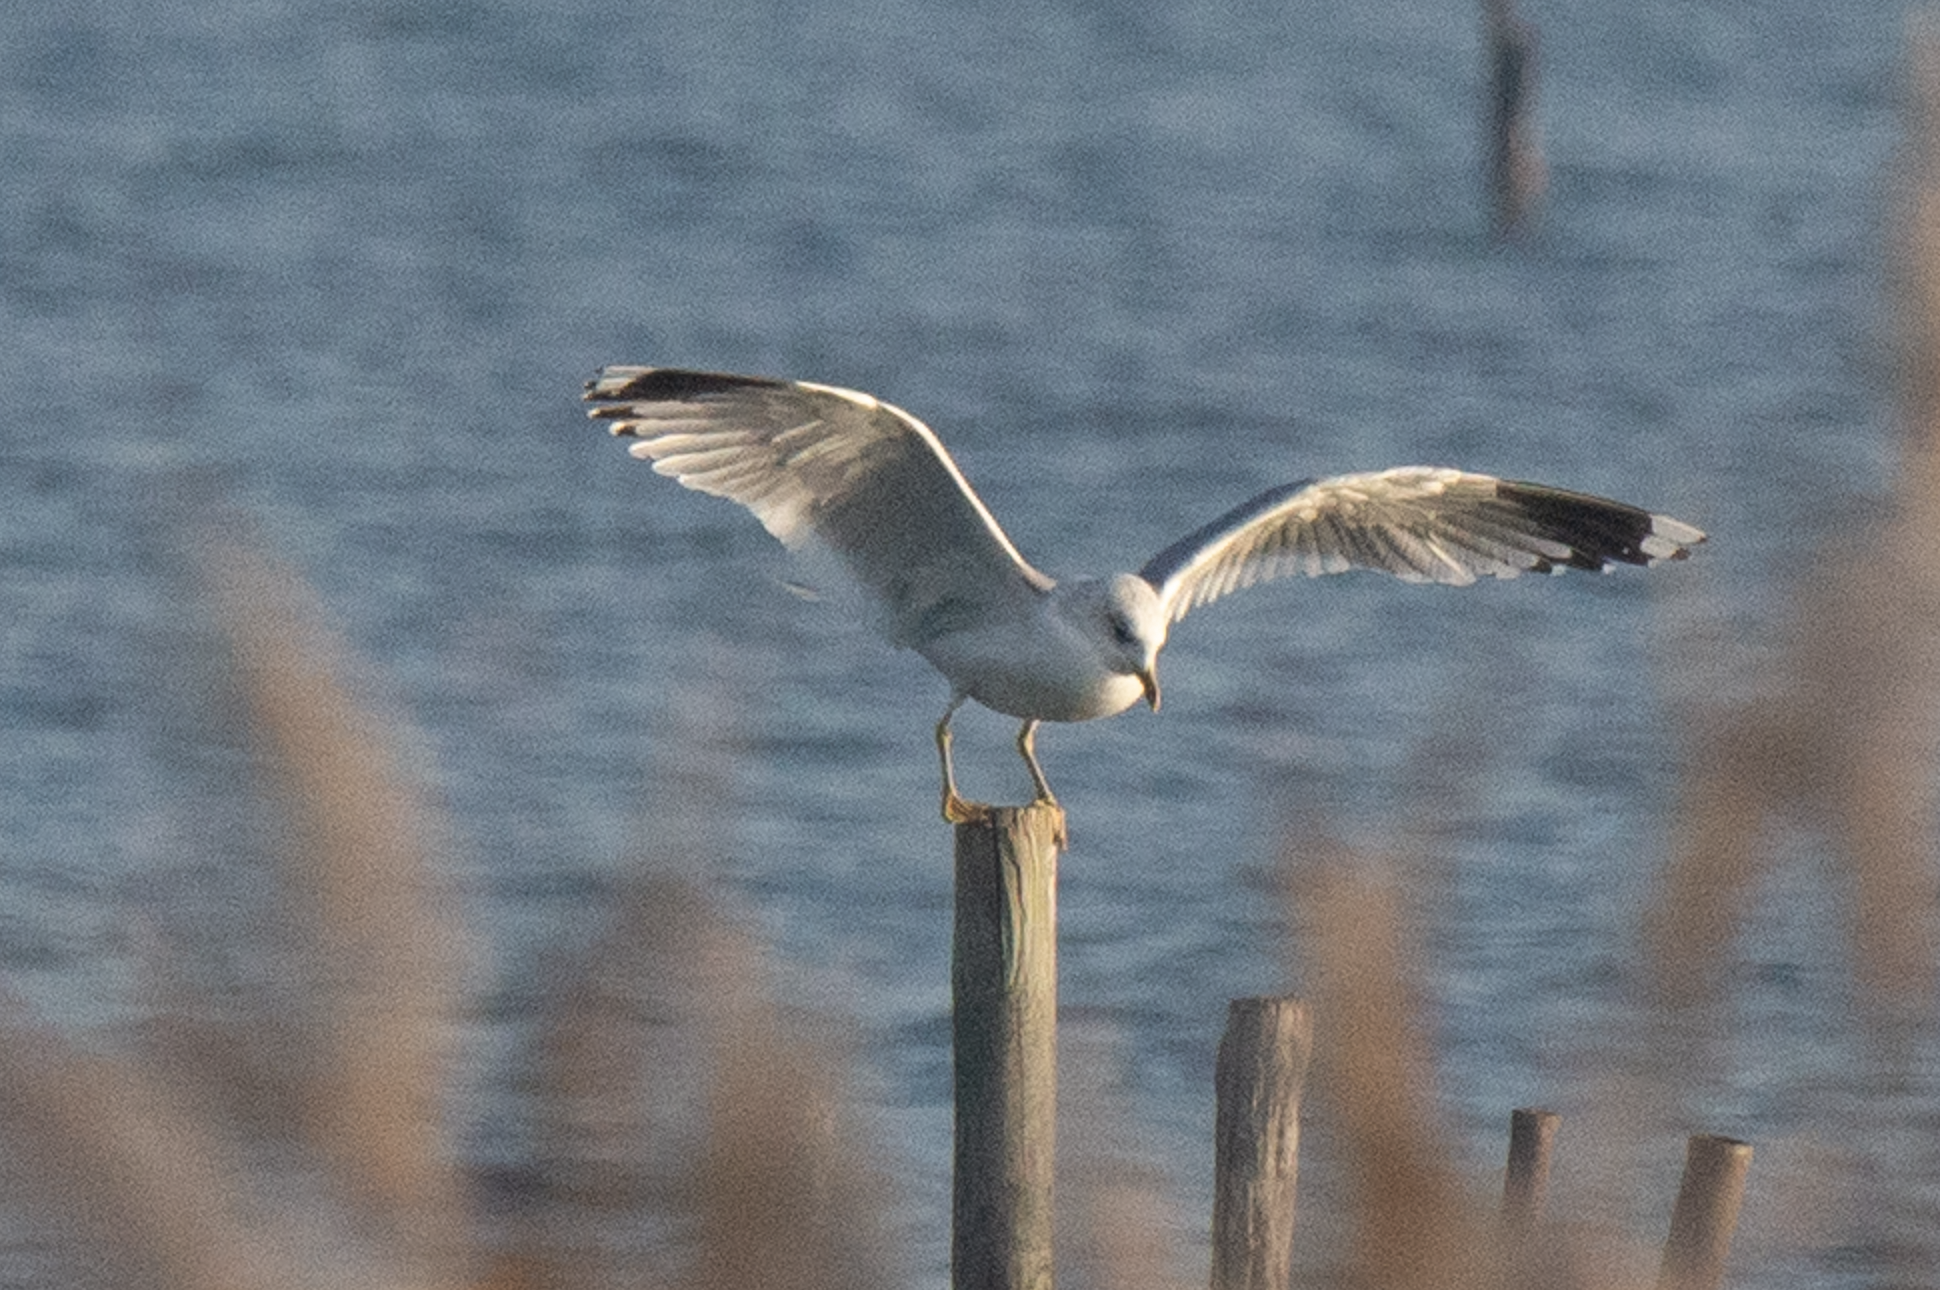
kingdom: Animalia
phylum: Chordata
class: Aves
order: Charadriiformes
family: Laridae
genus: Larus
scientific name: Larus canus
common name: Mew gull
